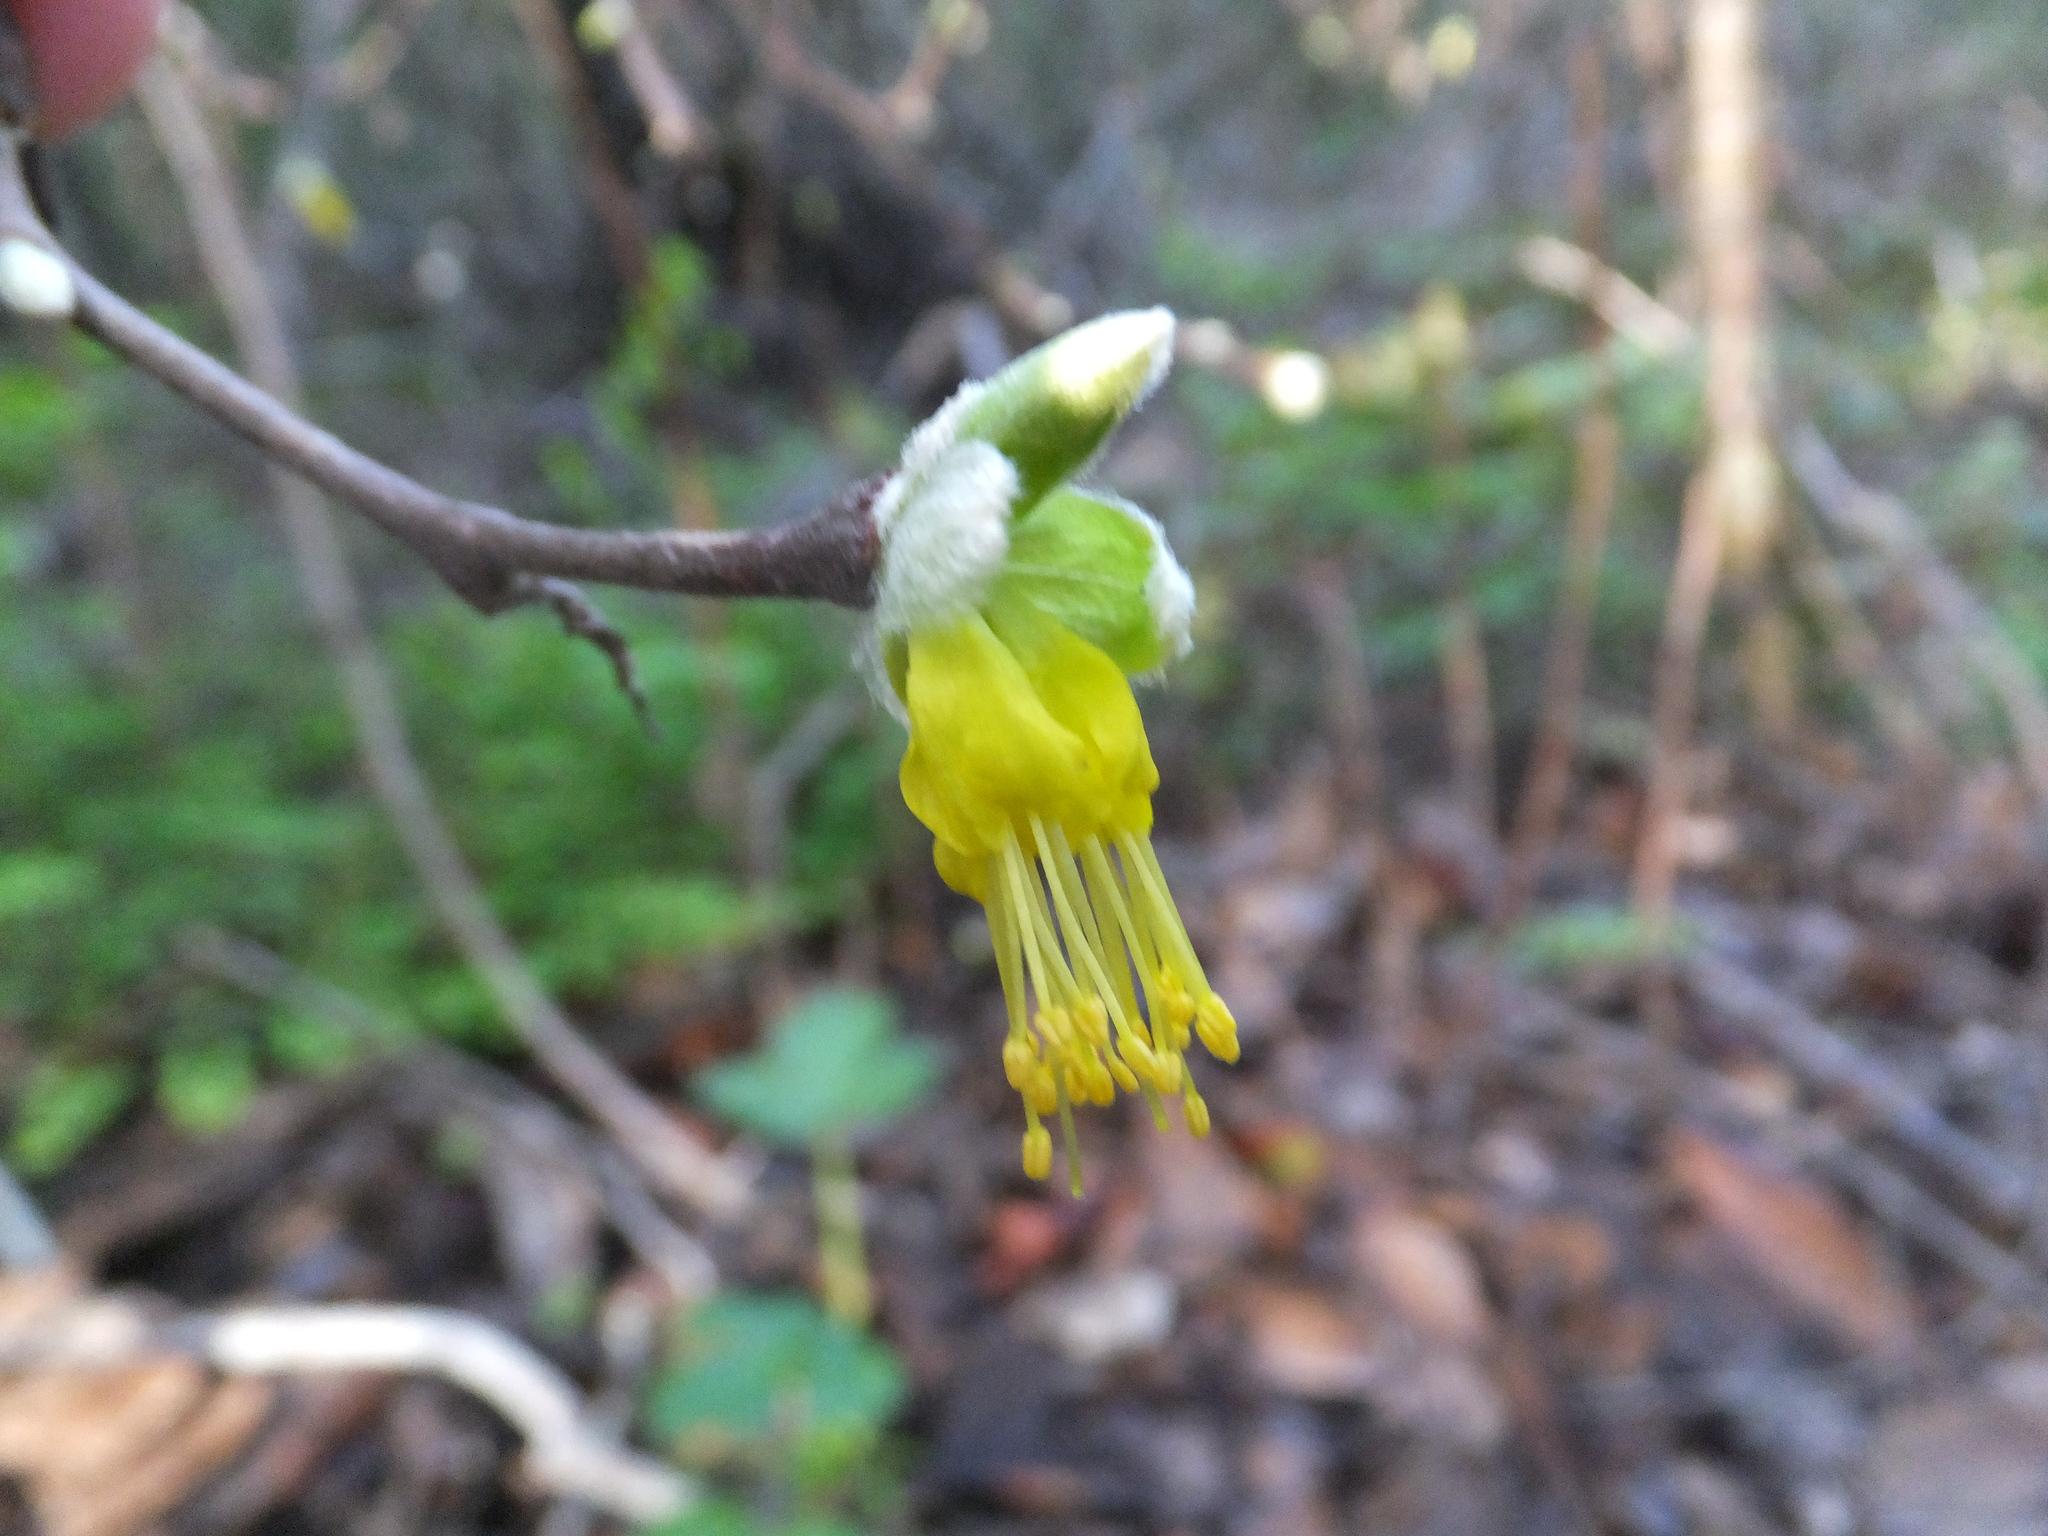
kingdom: Plantae
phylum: Tracheophyta
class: Magnoliopsida
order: Malvales
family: Thymelaeaceae
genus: Dirca
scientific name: Dirca occidentalis
